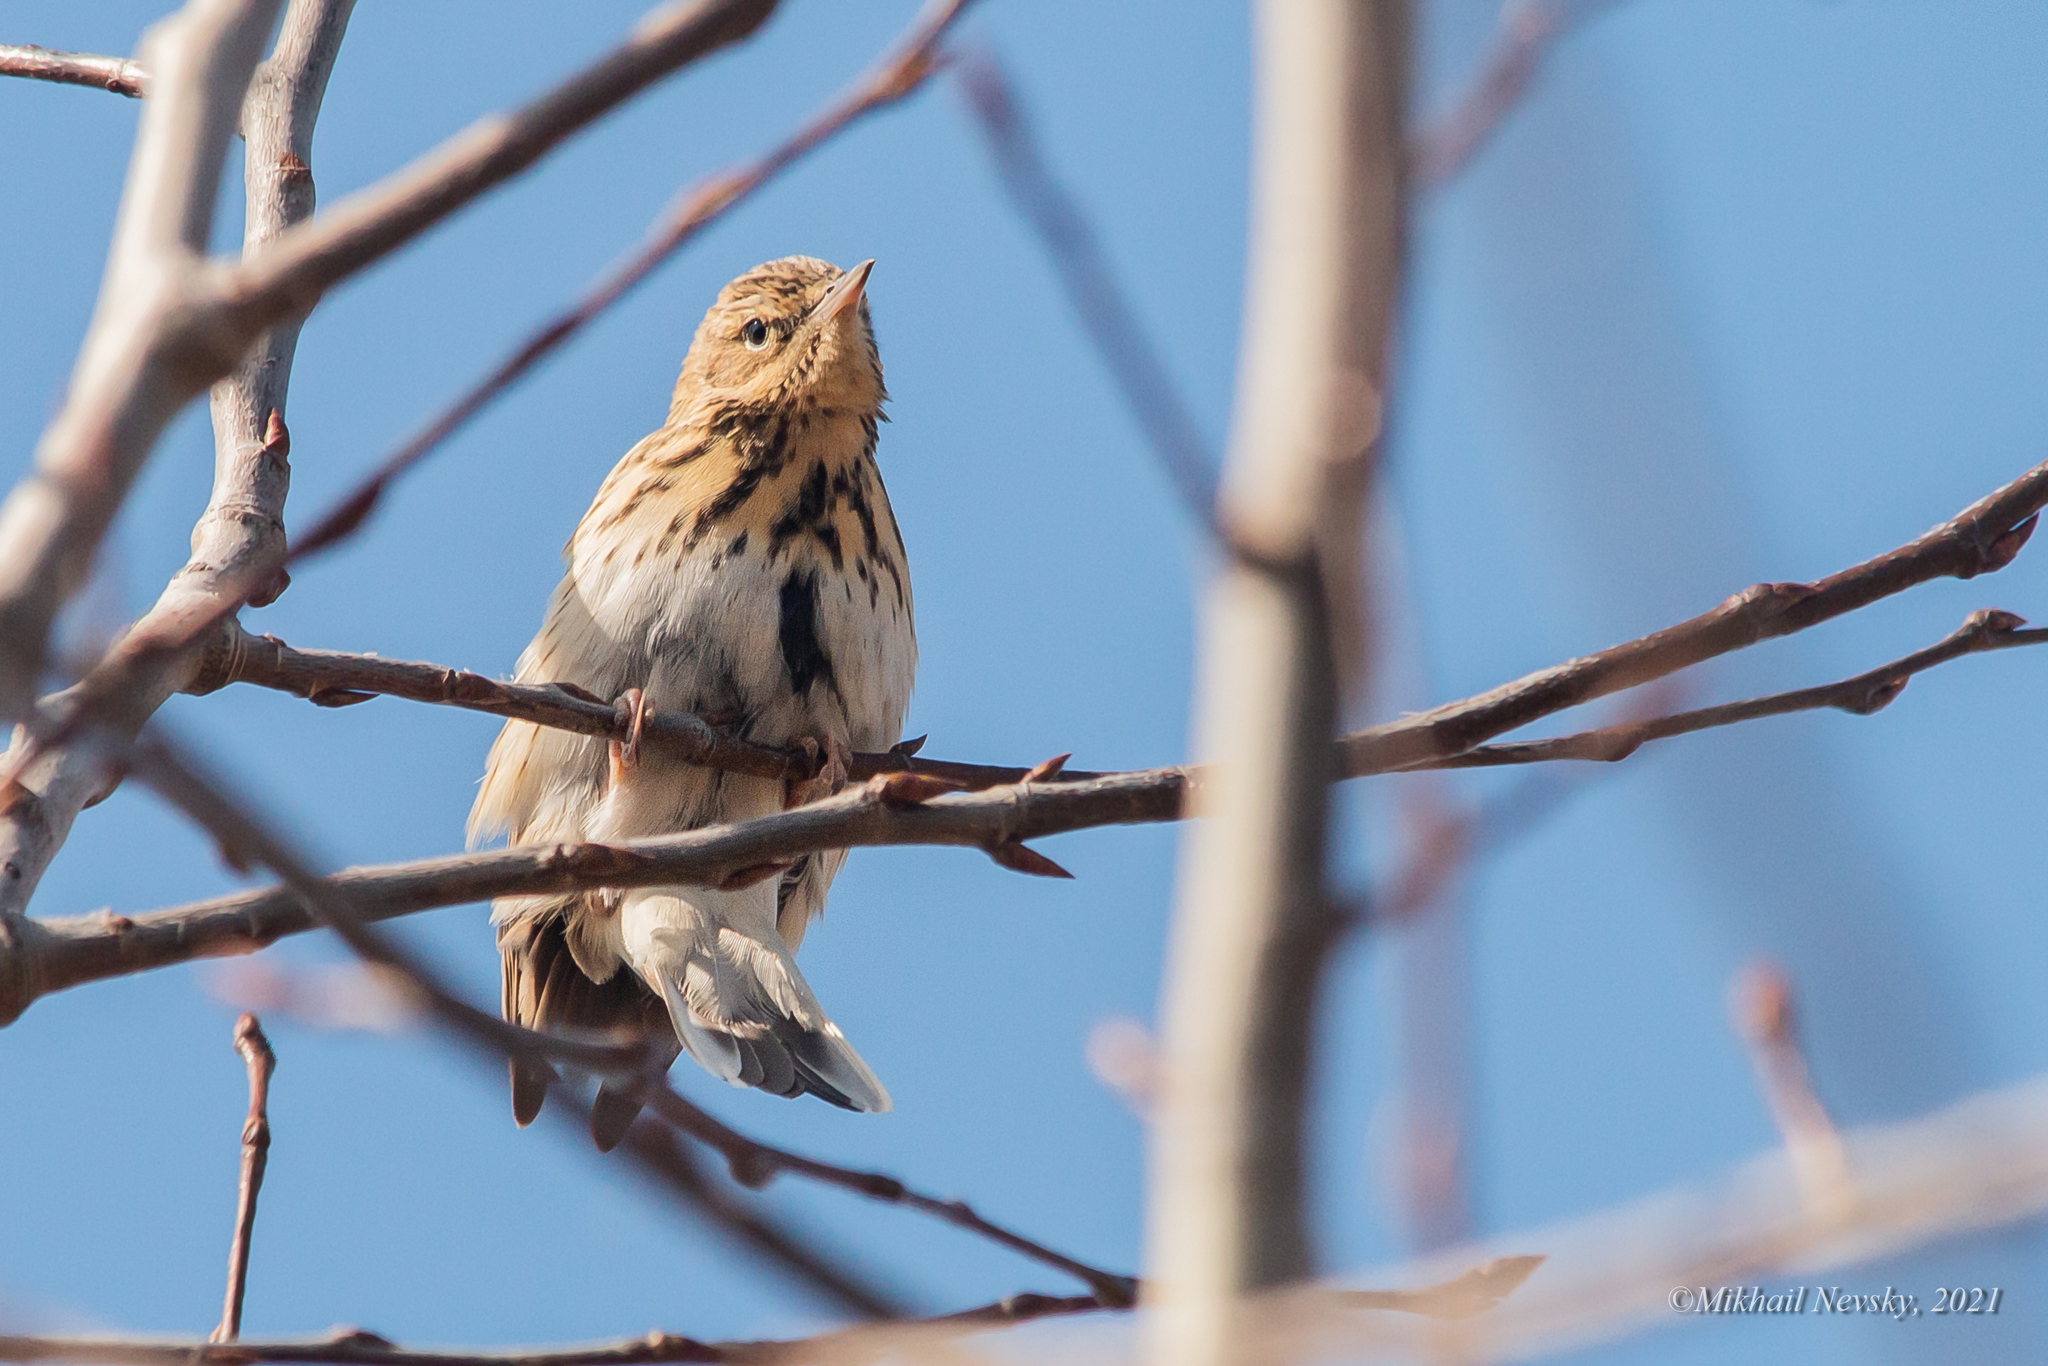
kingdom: Animalia
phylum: Chordata
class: Aves
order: Passeriformes
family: Motacillidae
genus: Anthus
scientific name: Anthus trivialis
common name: Tree pipit
